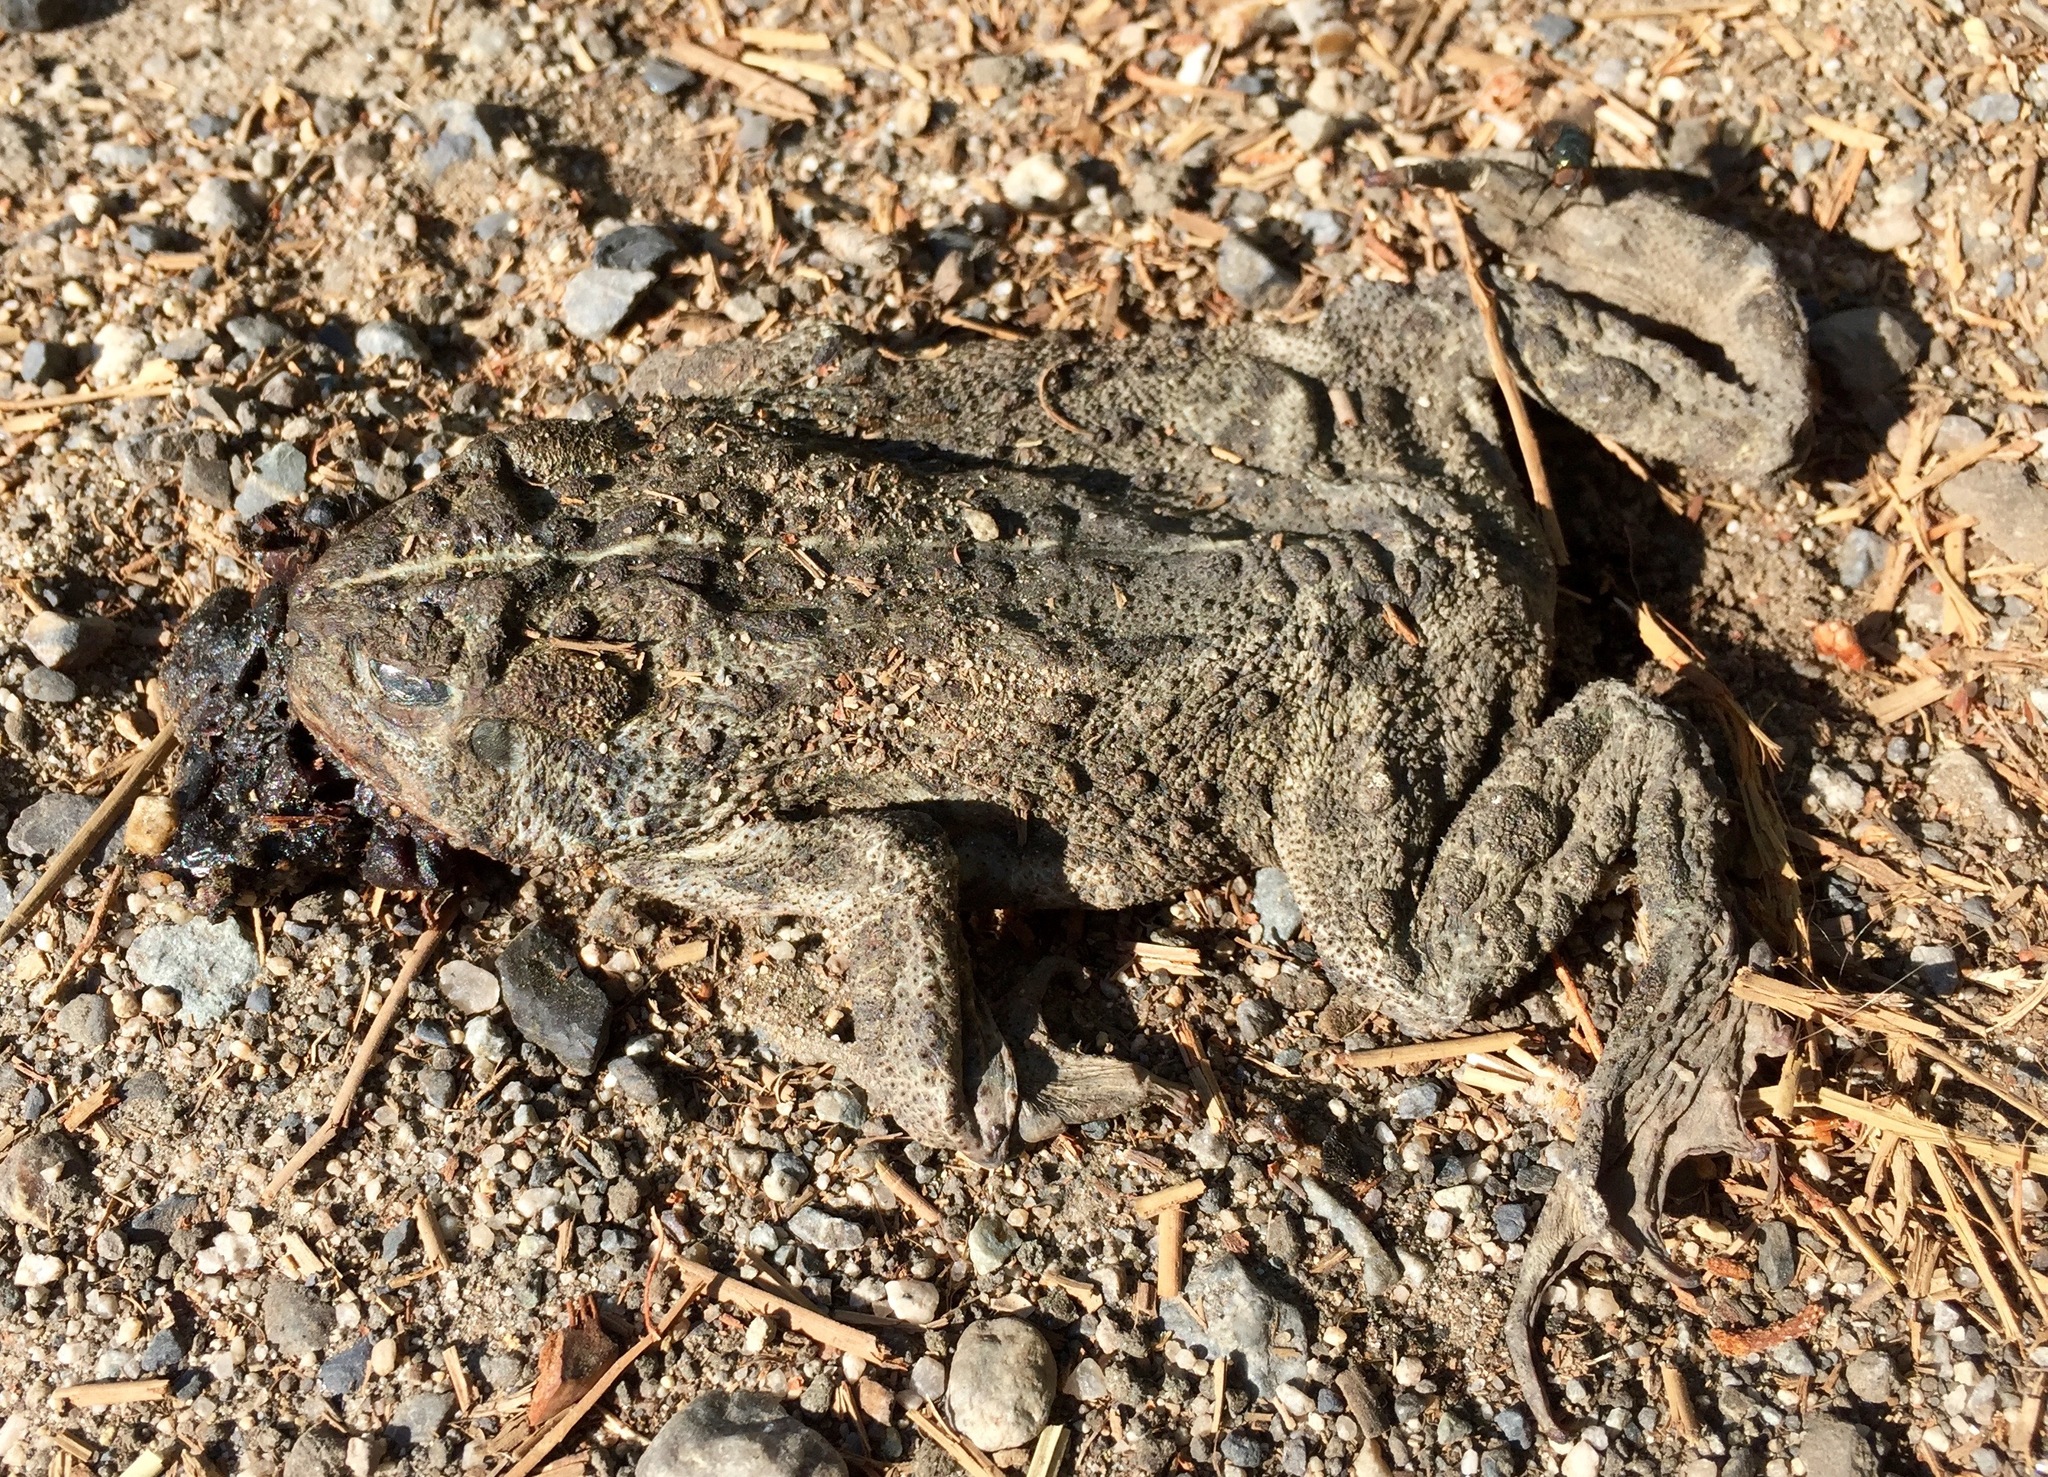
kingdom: Animalia
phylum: Chordata
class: Amphibia
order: Anura
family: Bufonidae
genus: Anaxyrus
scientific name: Anaxyrus boreas
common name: Western toad
